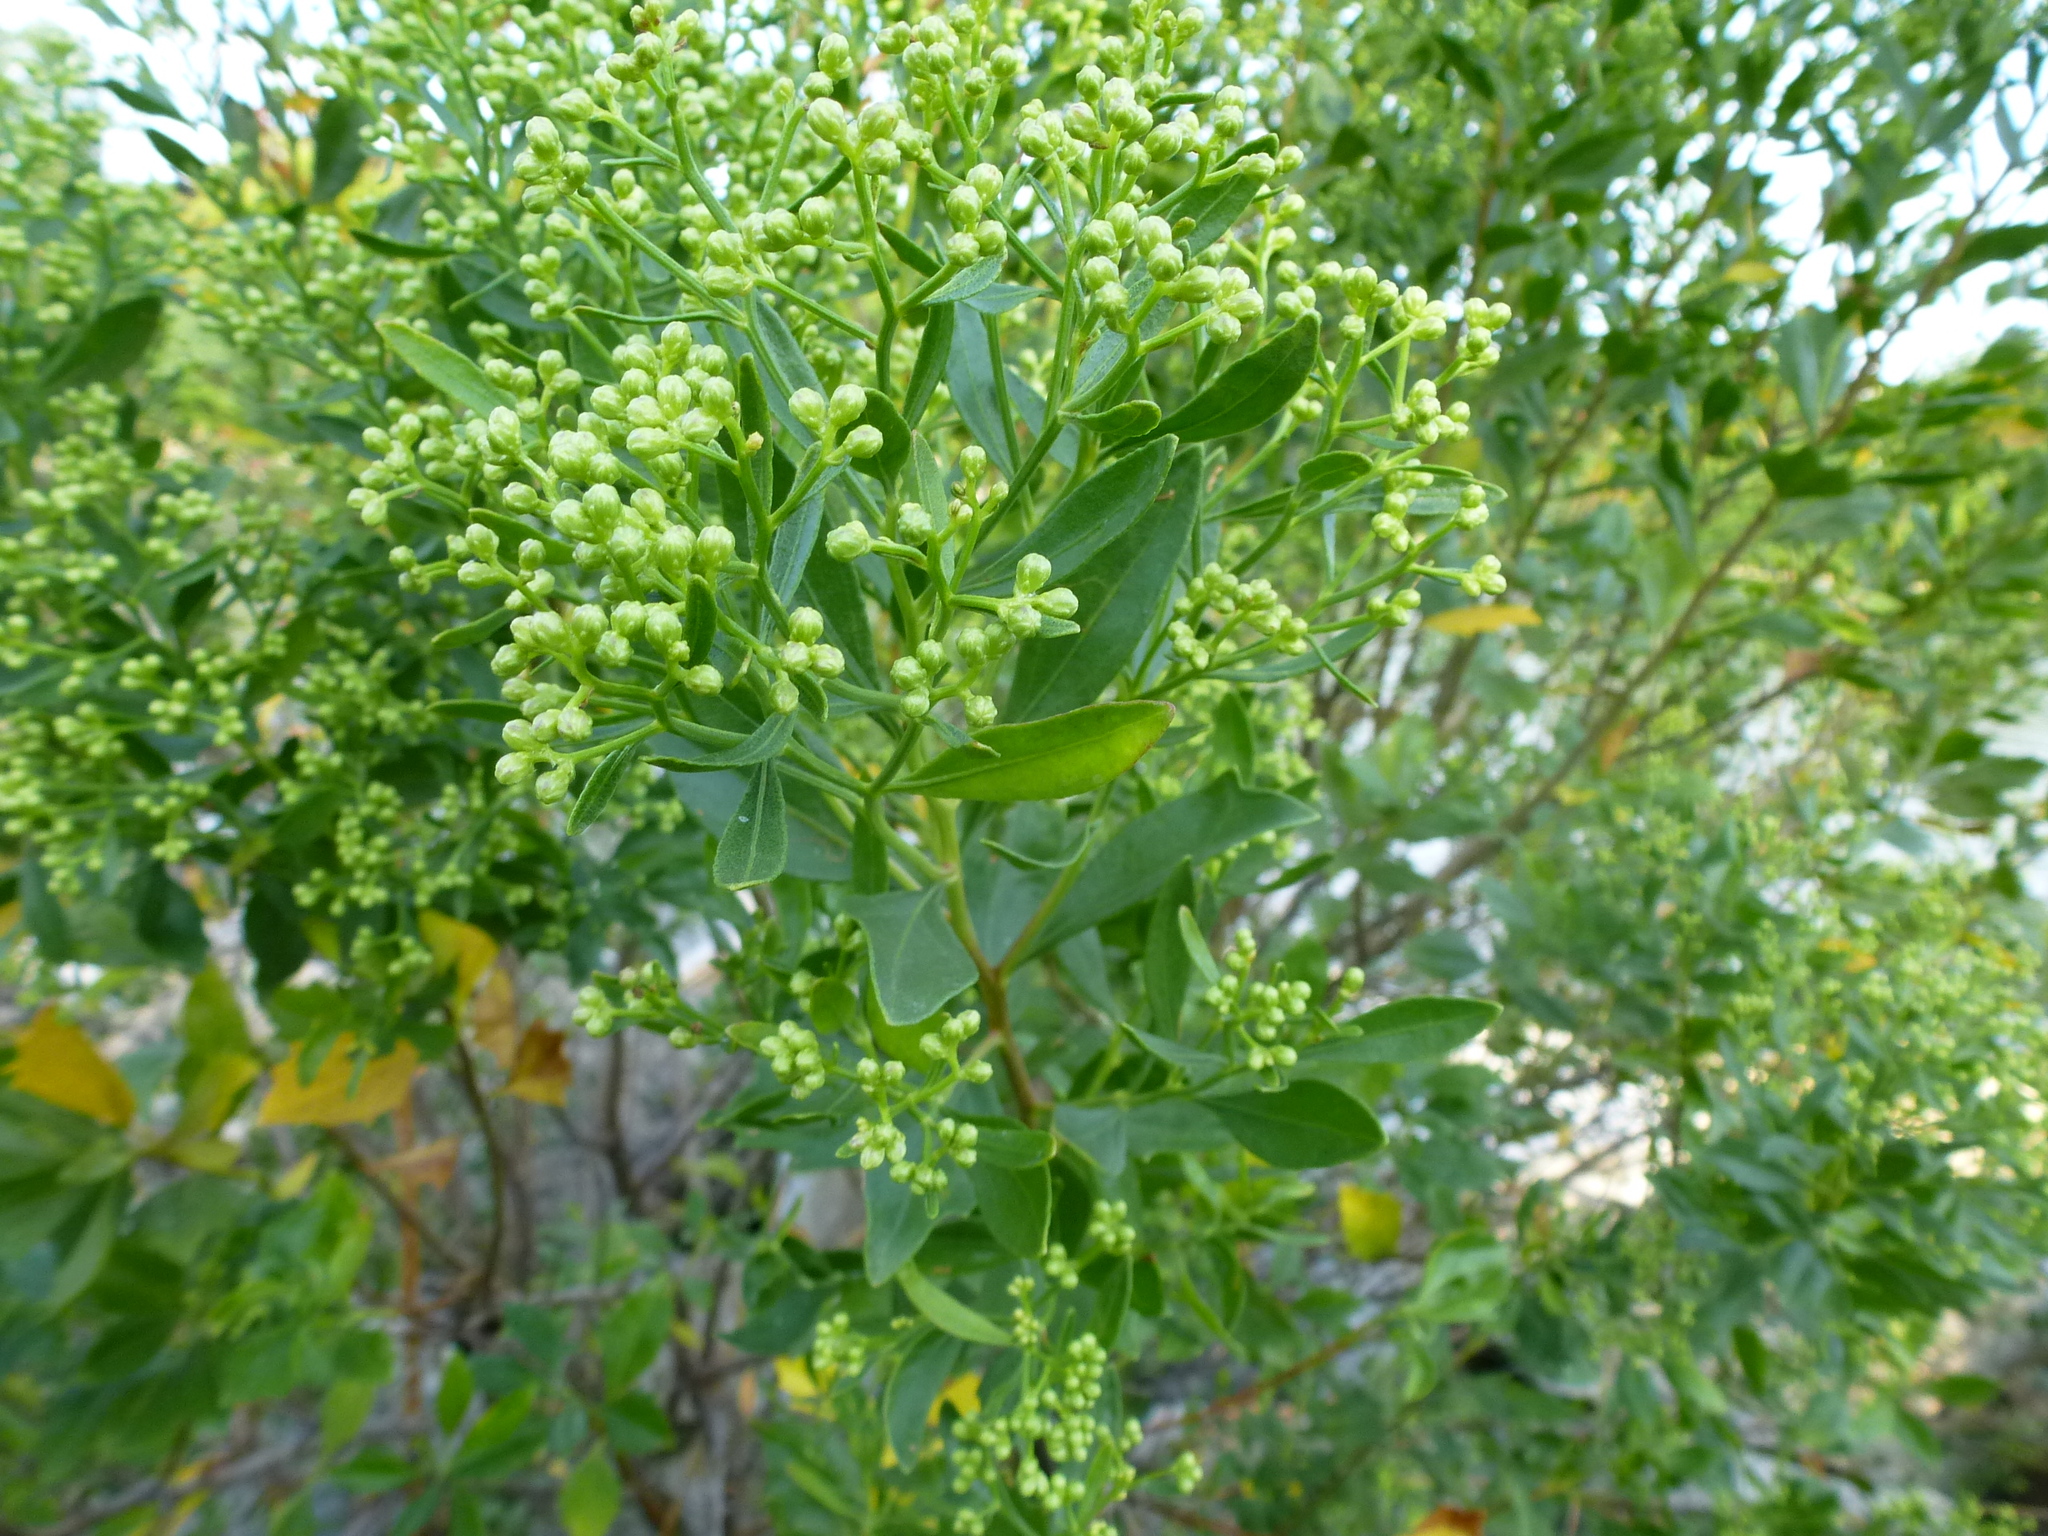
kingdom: Plantae
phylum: Tracheophyta
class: Magnoliopsida
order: Asterales
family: Asteraceae
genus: Baccharis
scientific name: Baccharis halimifolia
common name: Eastern baccharis
